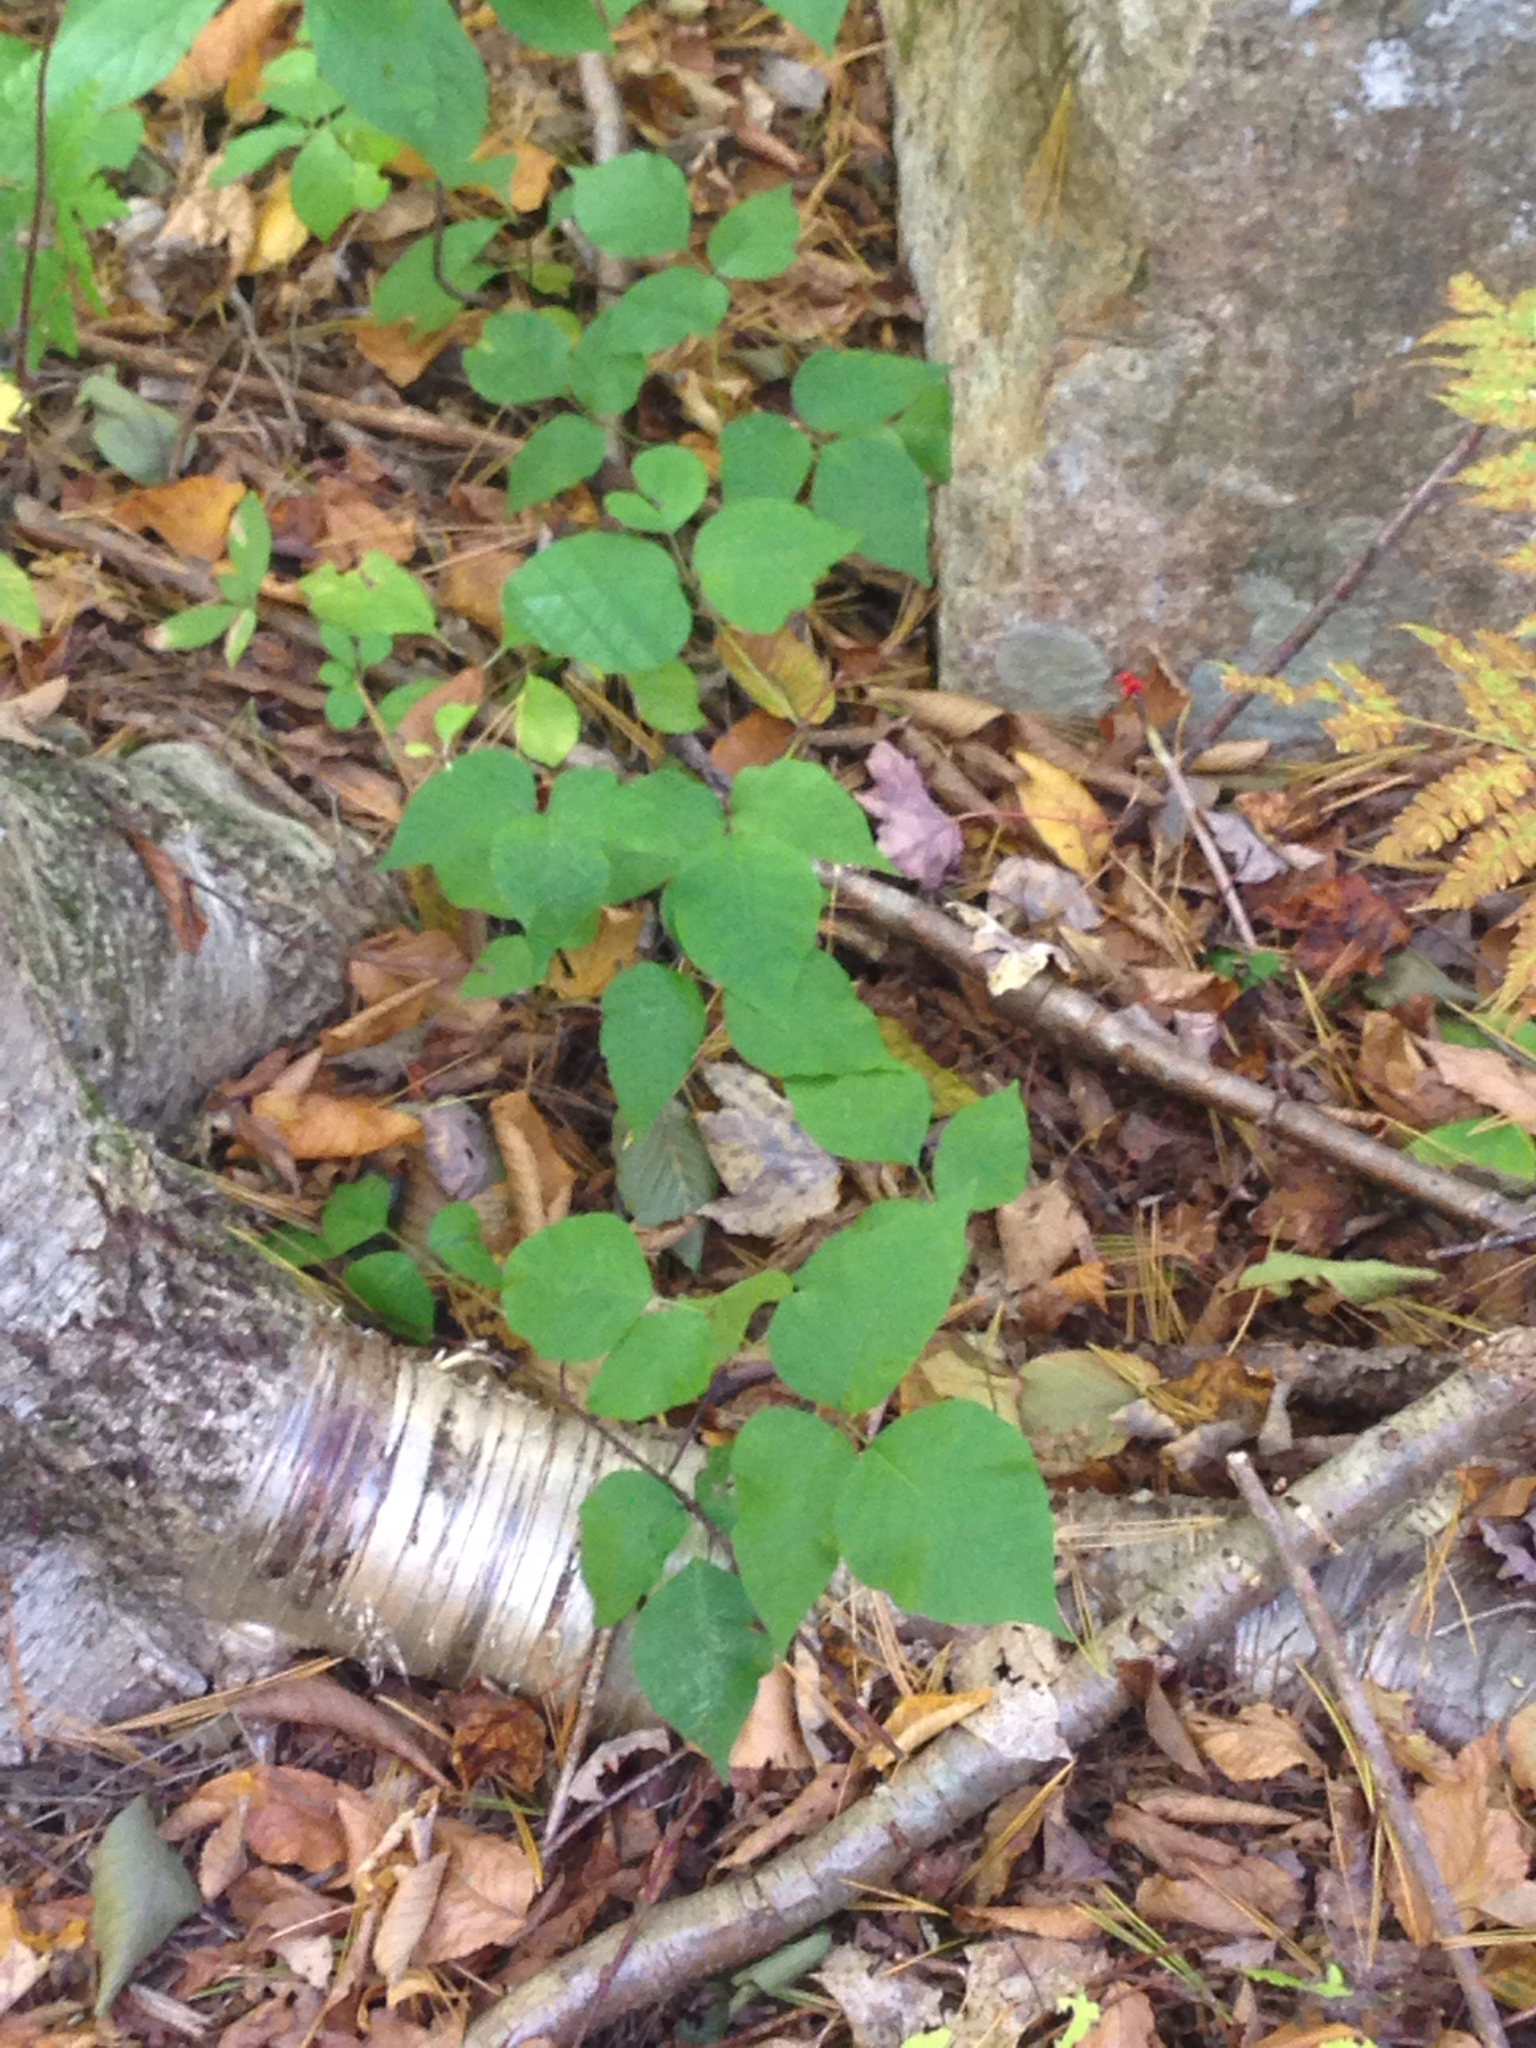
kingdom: Plantae
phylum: Tracheophyta
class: Magnoliopsida
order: Sapindales
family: Anacardiaceae
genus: Toxicodendron
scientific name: Toxicodendron radicans
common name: Poison ivy
